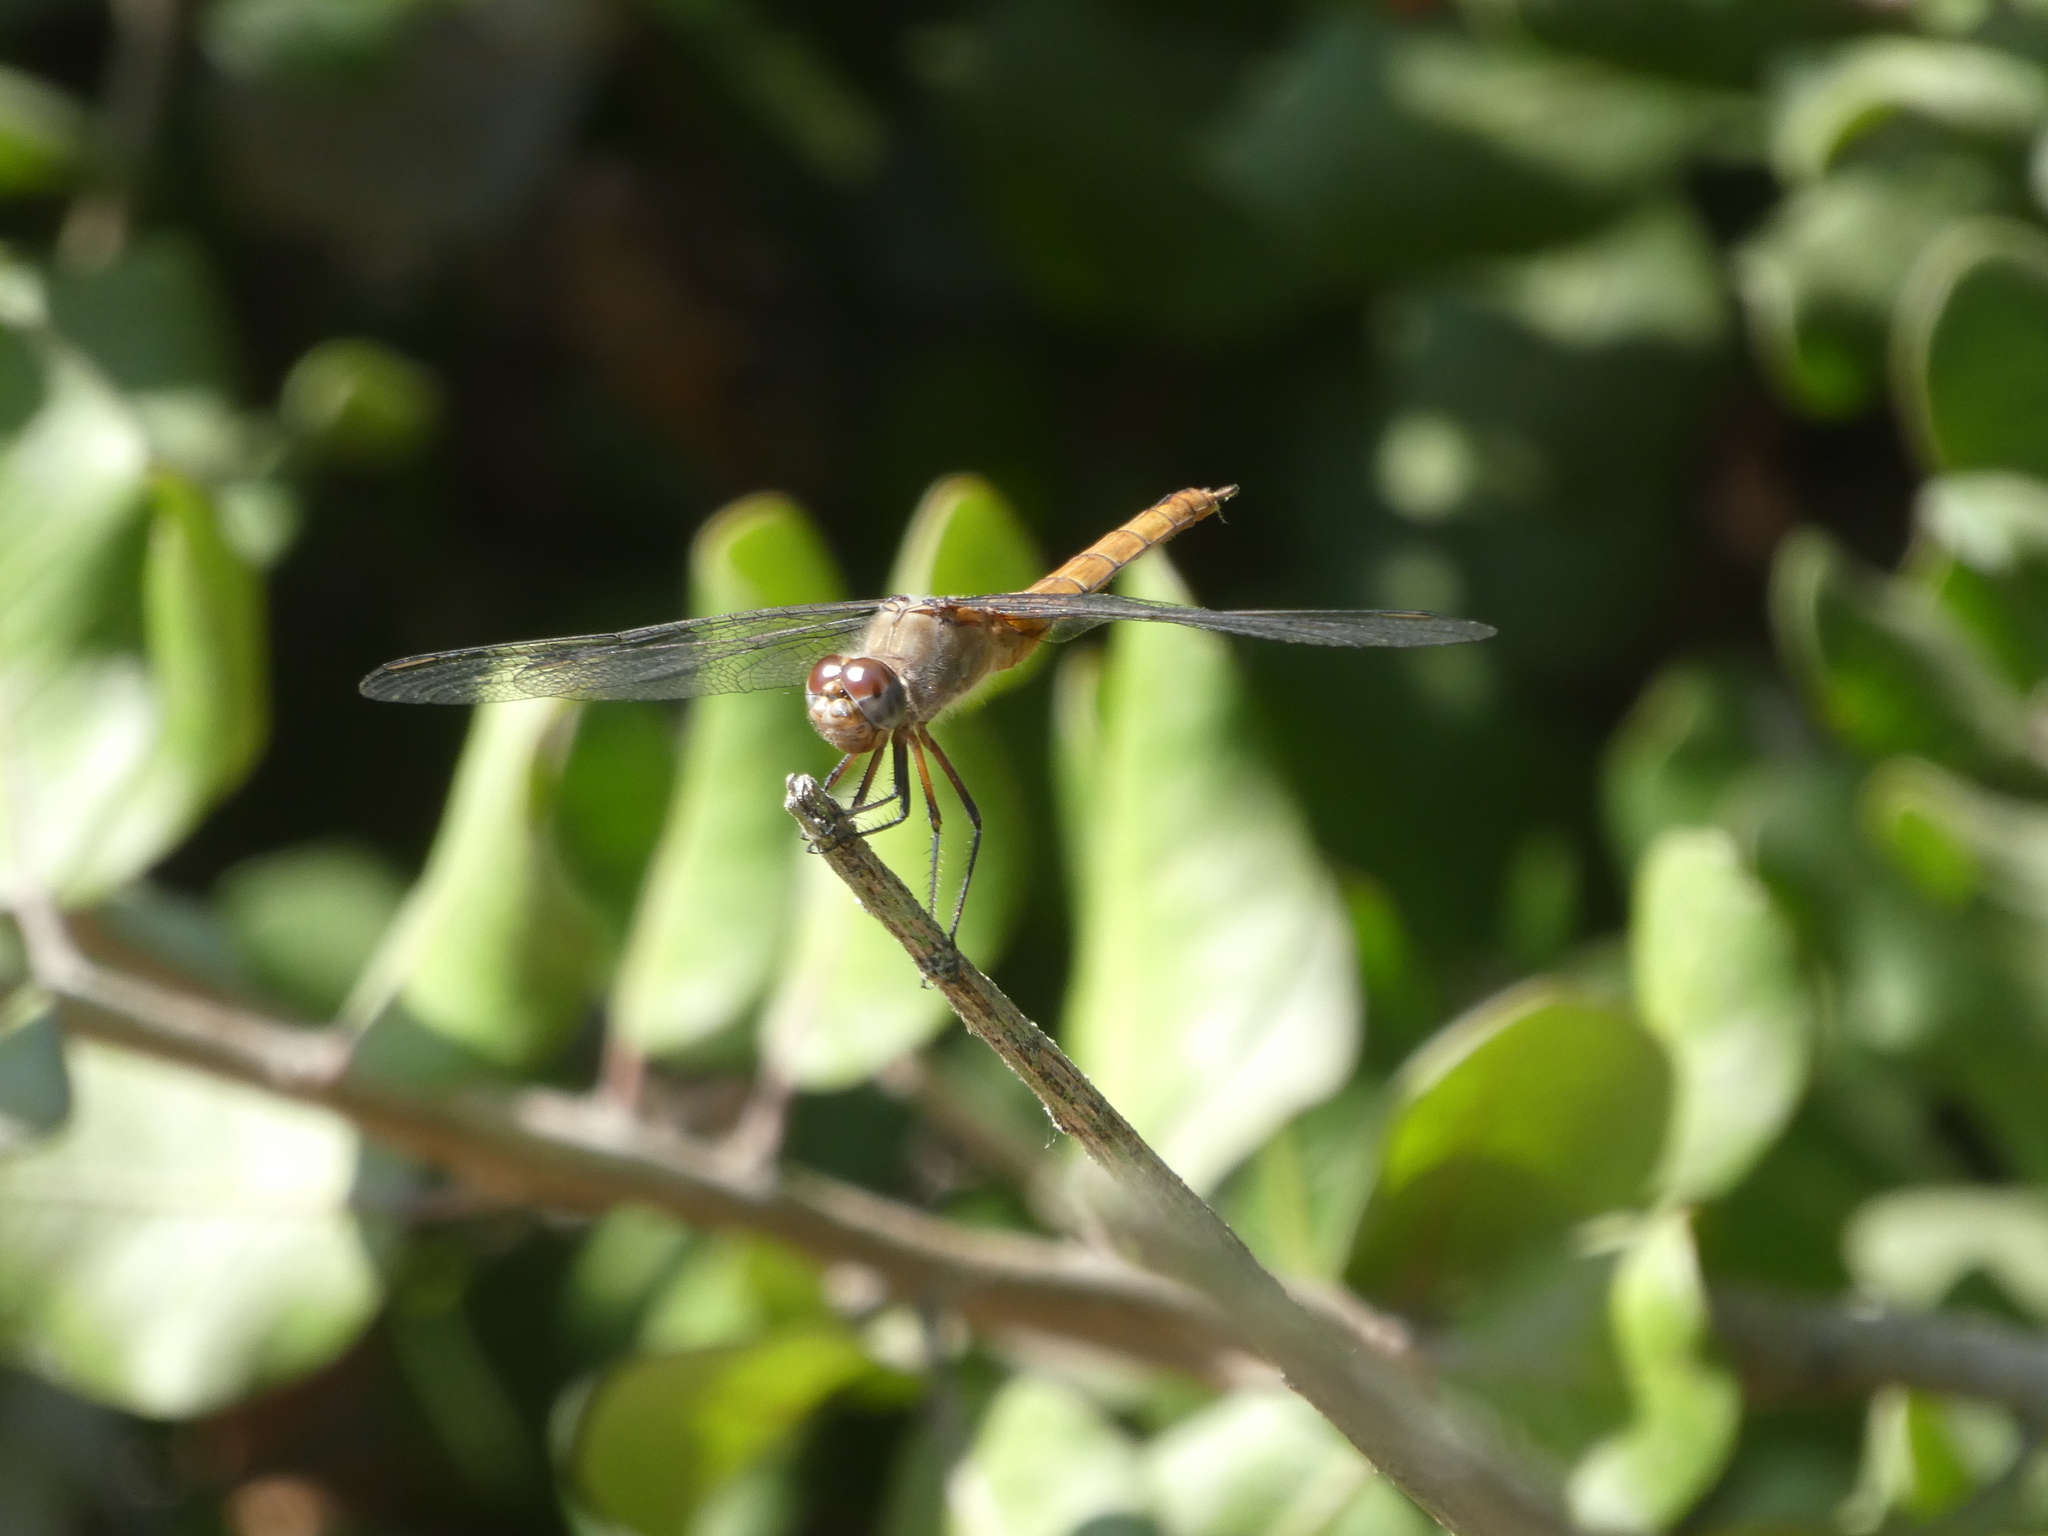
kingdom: Animalia
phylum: Arthropoda
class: Insecta
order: Odonata
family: Libellulidae
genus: Brachymesia
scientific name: Brachymesia furcata
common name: Red-taled pennant
